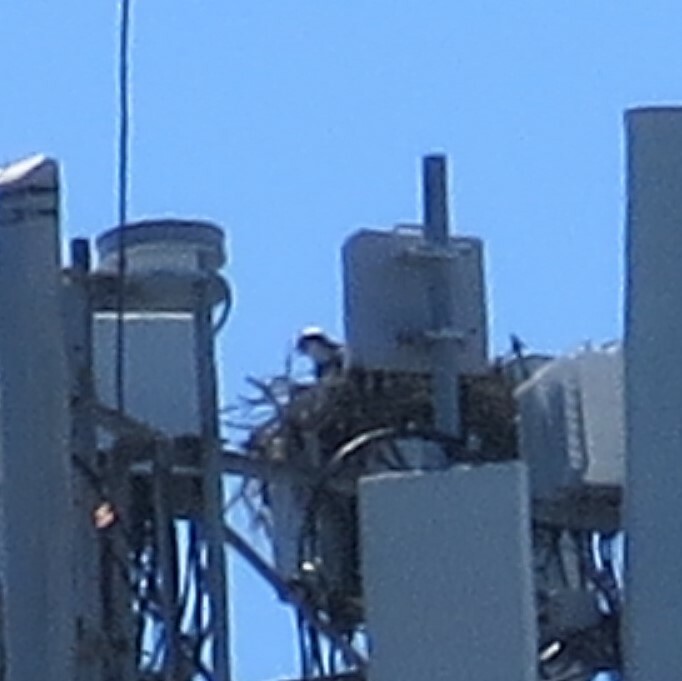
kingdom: Animalia
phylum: Chordata
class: Aves
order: Accipitriformes
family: Pandionidae
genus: Pandion
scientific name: Pandion haliaetus
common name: Osprey
